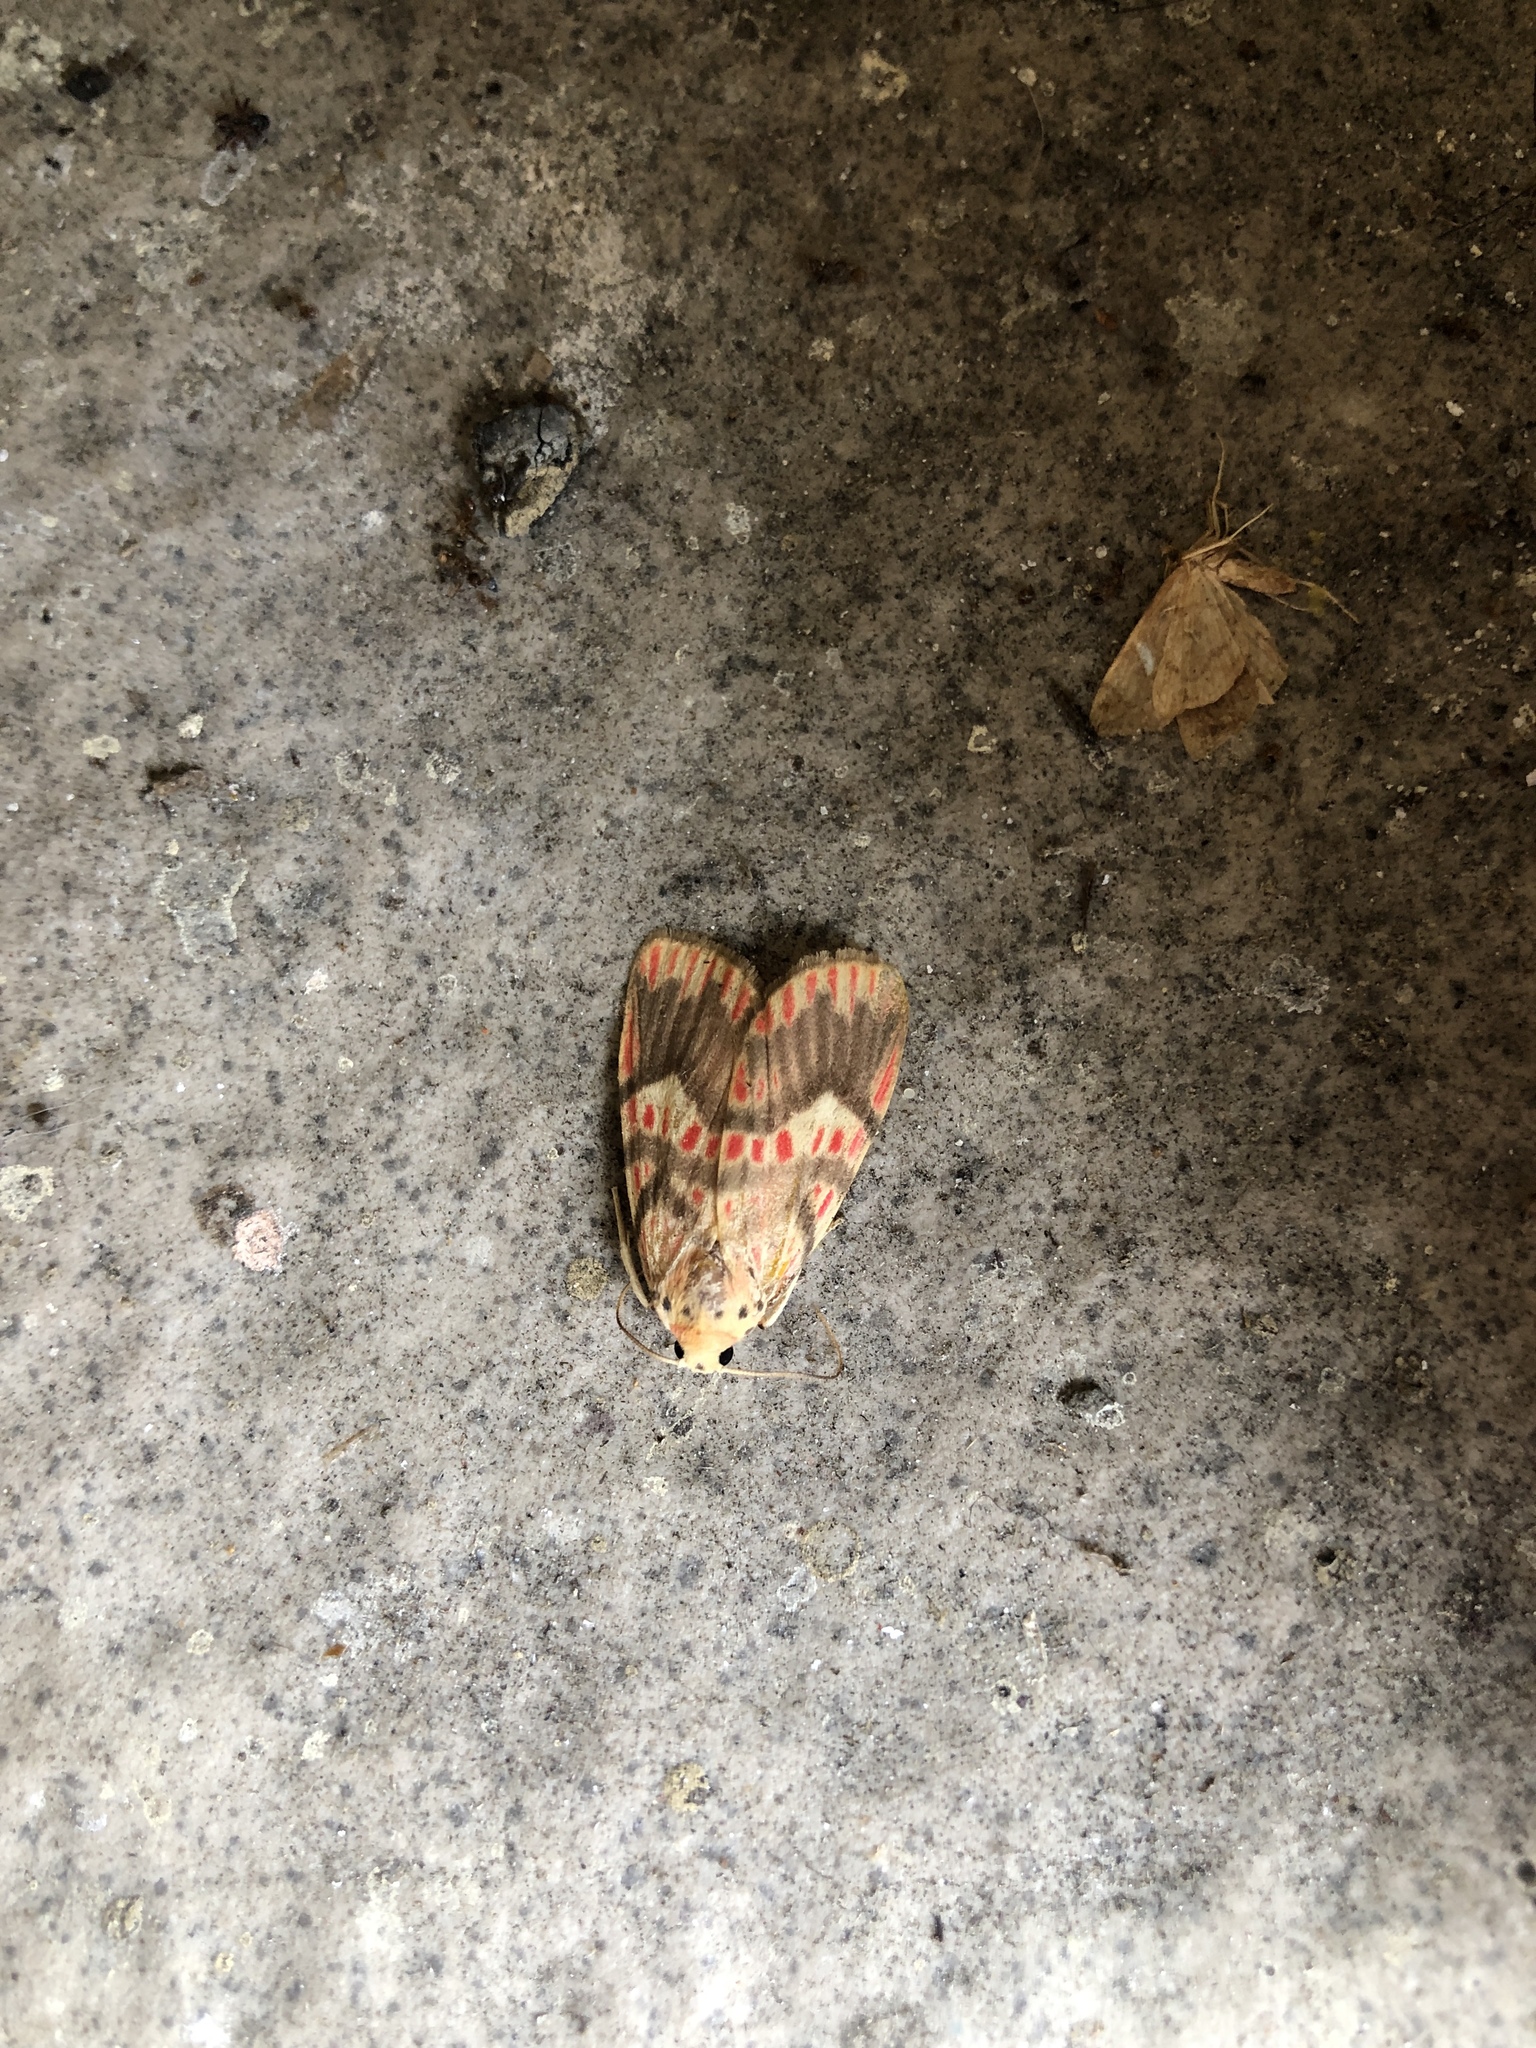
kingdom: Animalia
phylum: Arthropoda
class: Insecta
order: Lepidoptera
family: Erebidae
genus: Barsine
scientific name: Barsine fuscozonata
